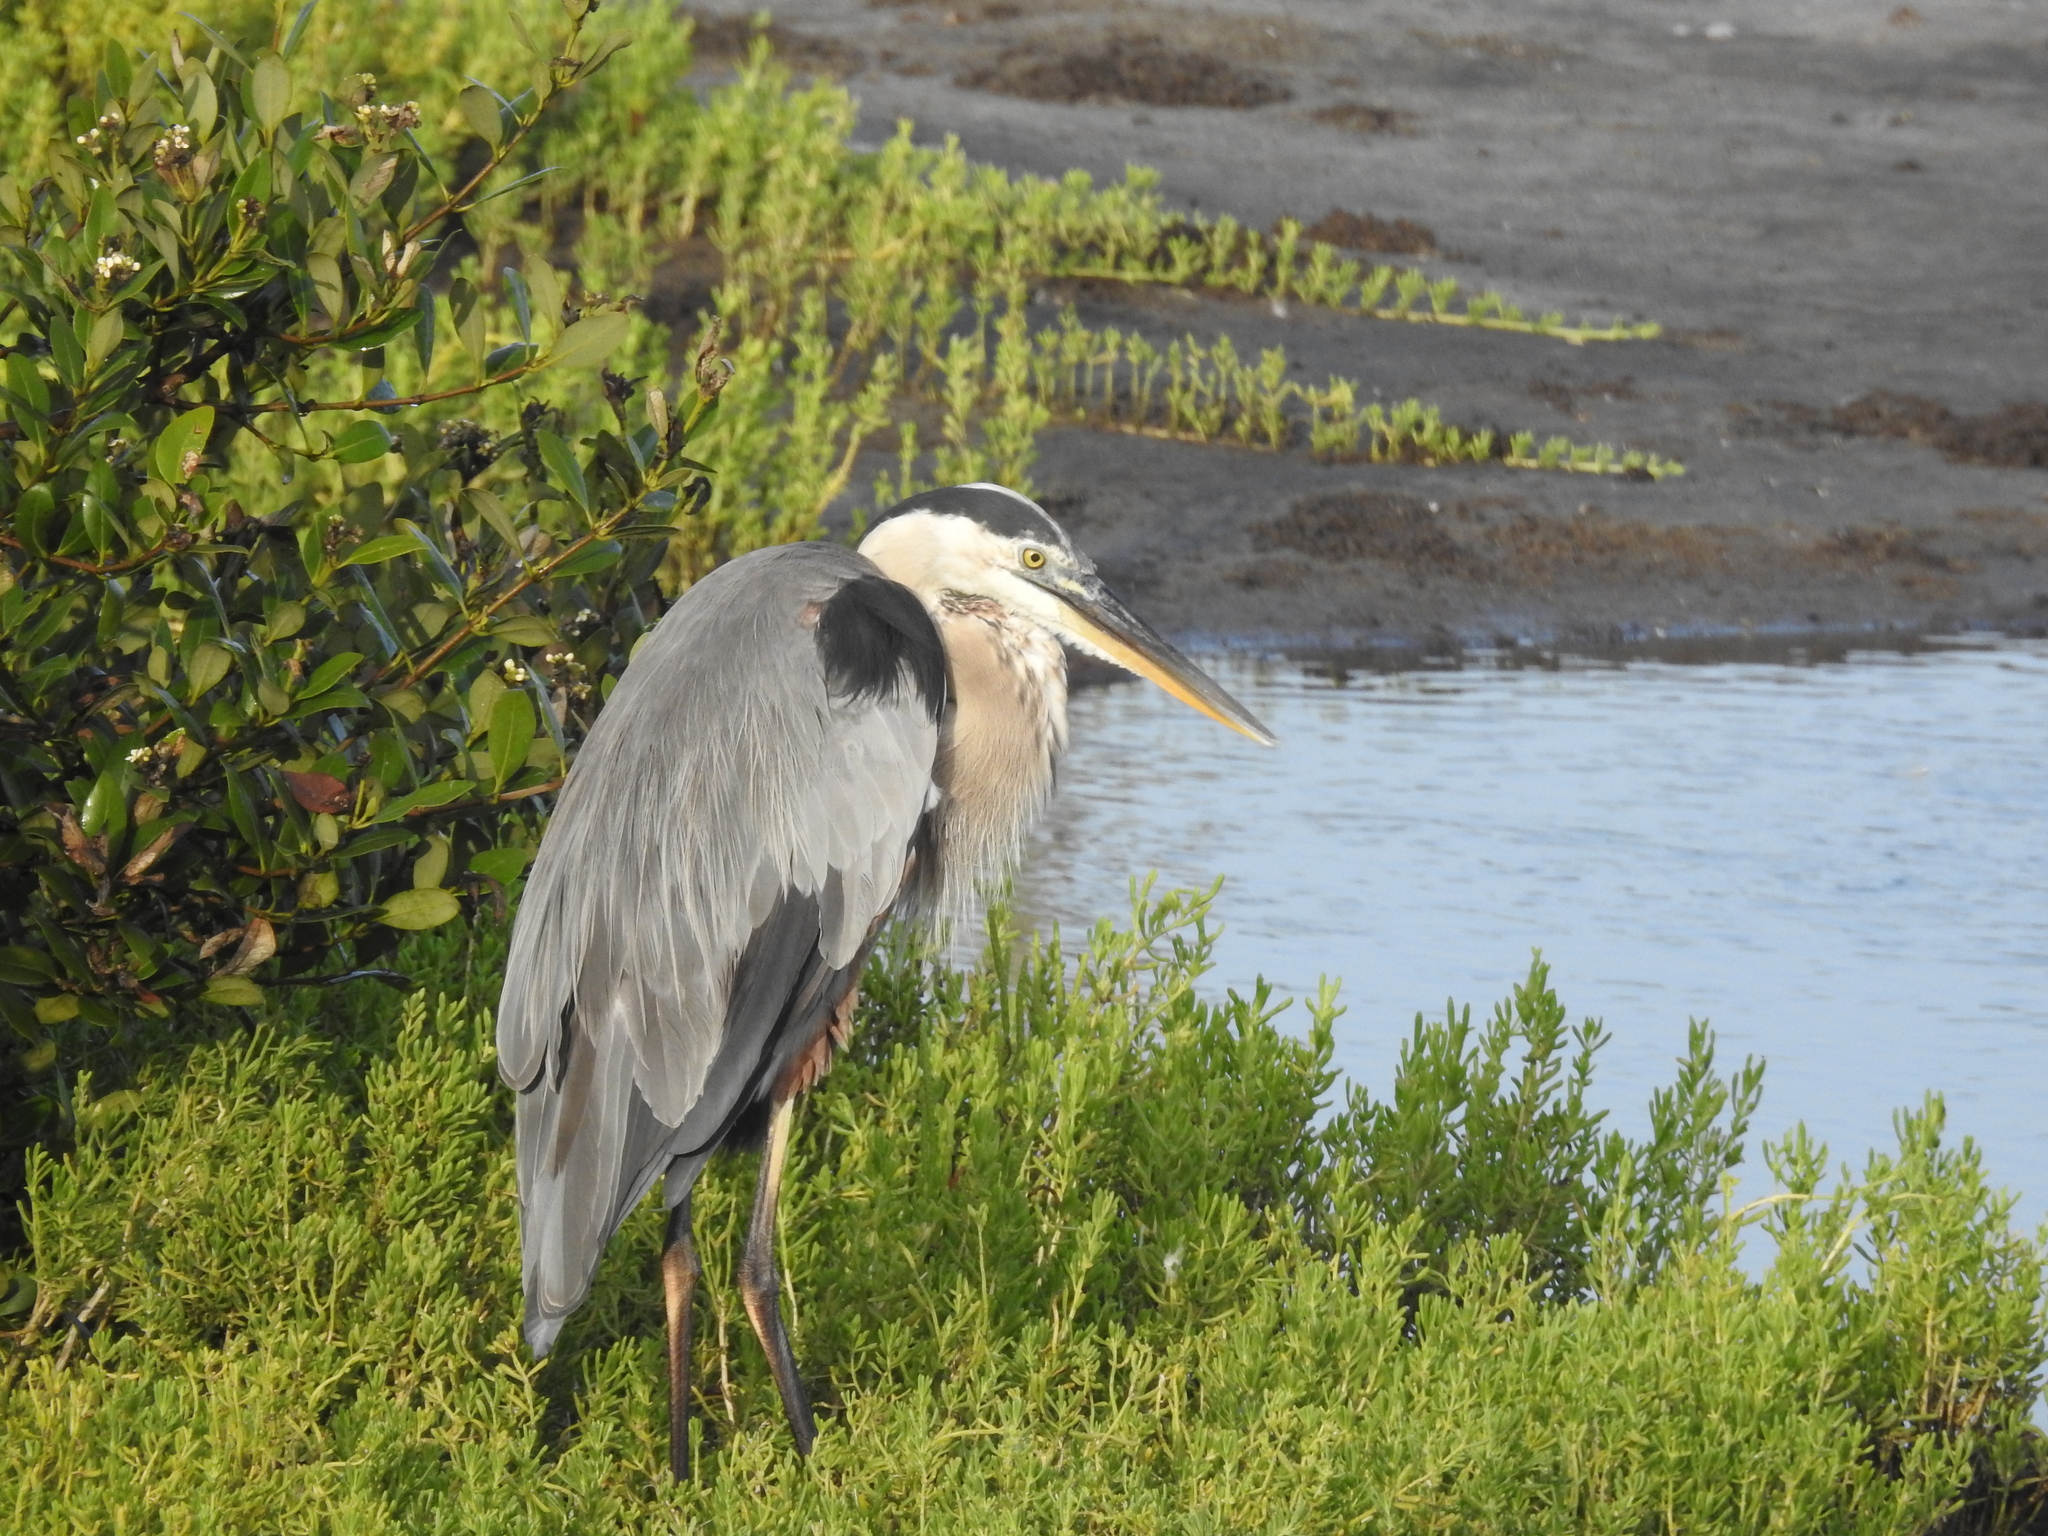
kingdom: Animalia
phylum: Chordata
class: Aves
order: Pelecaniformes
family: Ardeidae
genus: Ardea
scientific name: Ardea herodias
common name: Great blue heron
